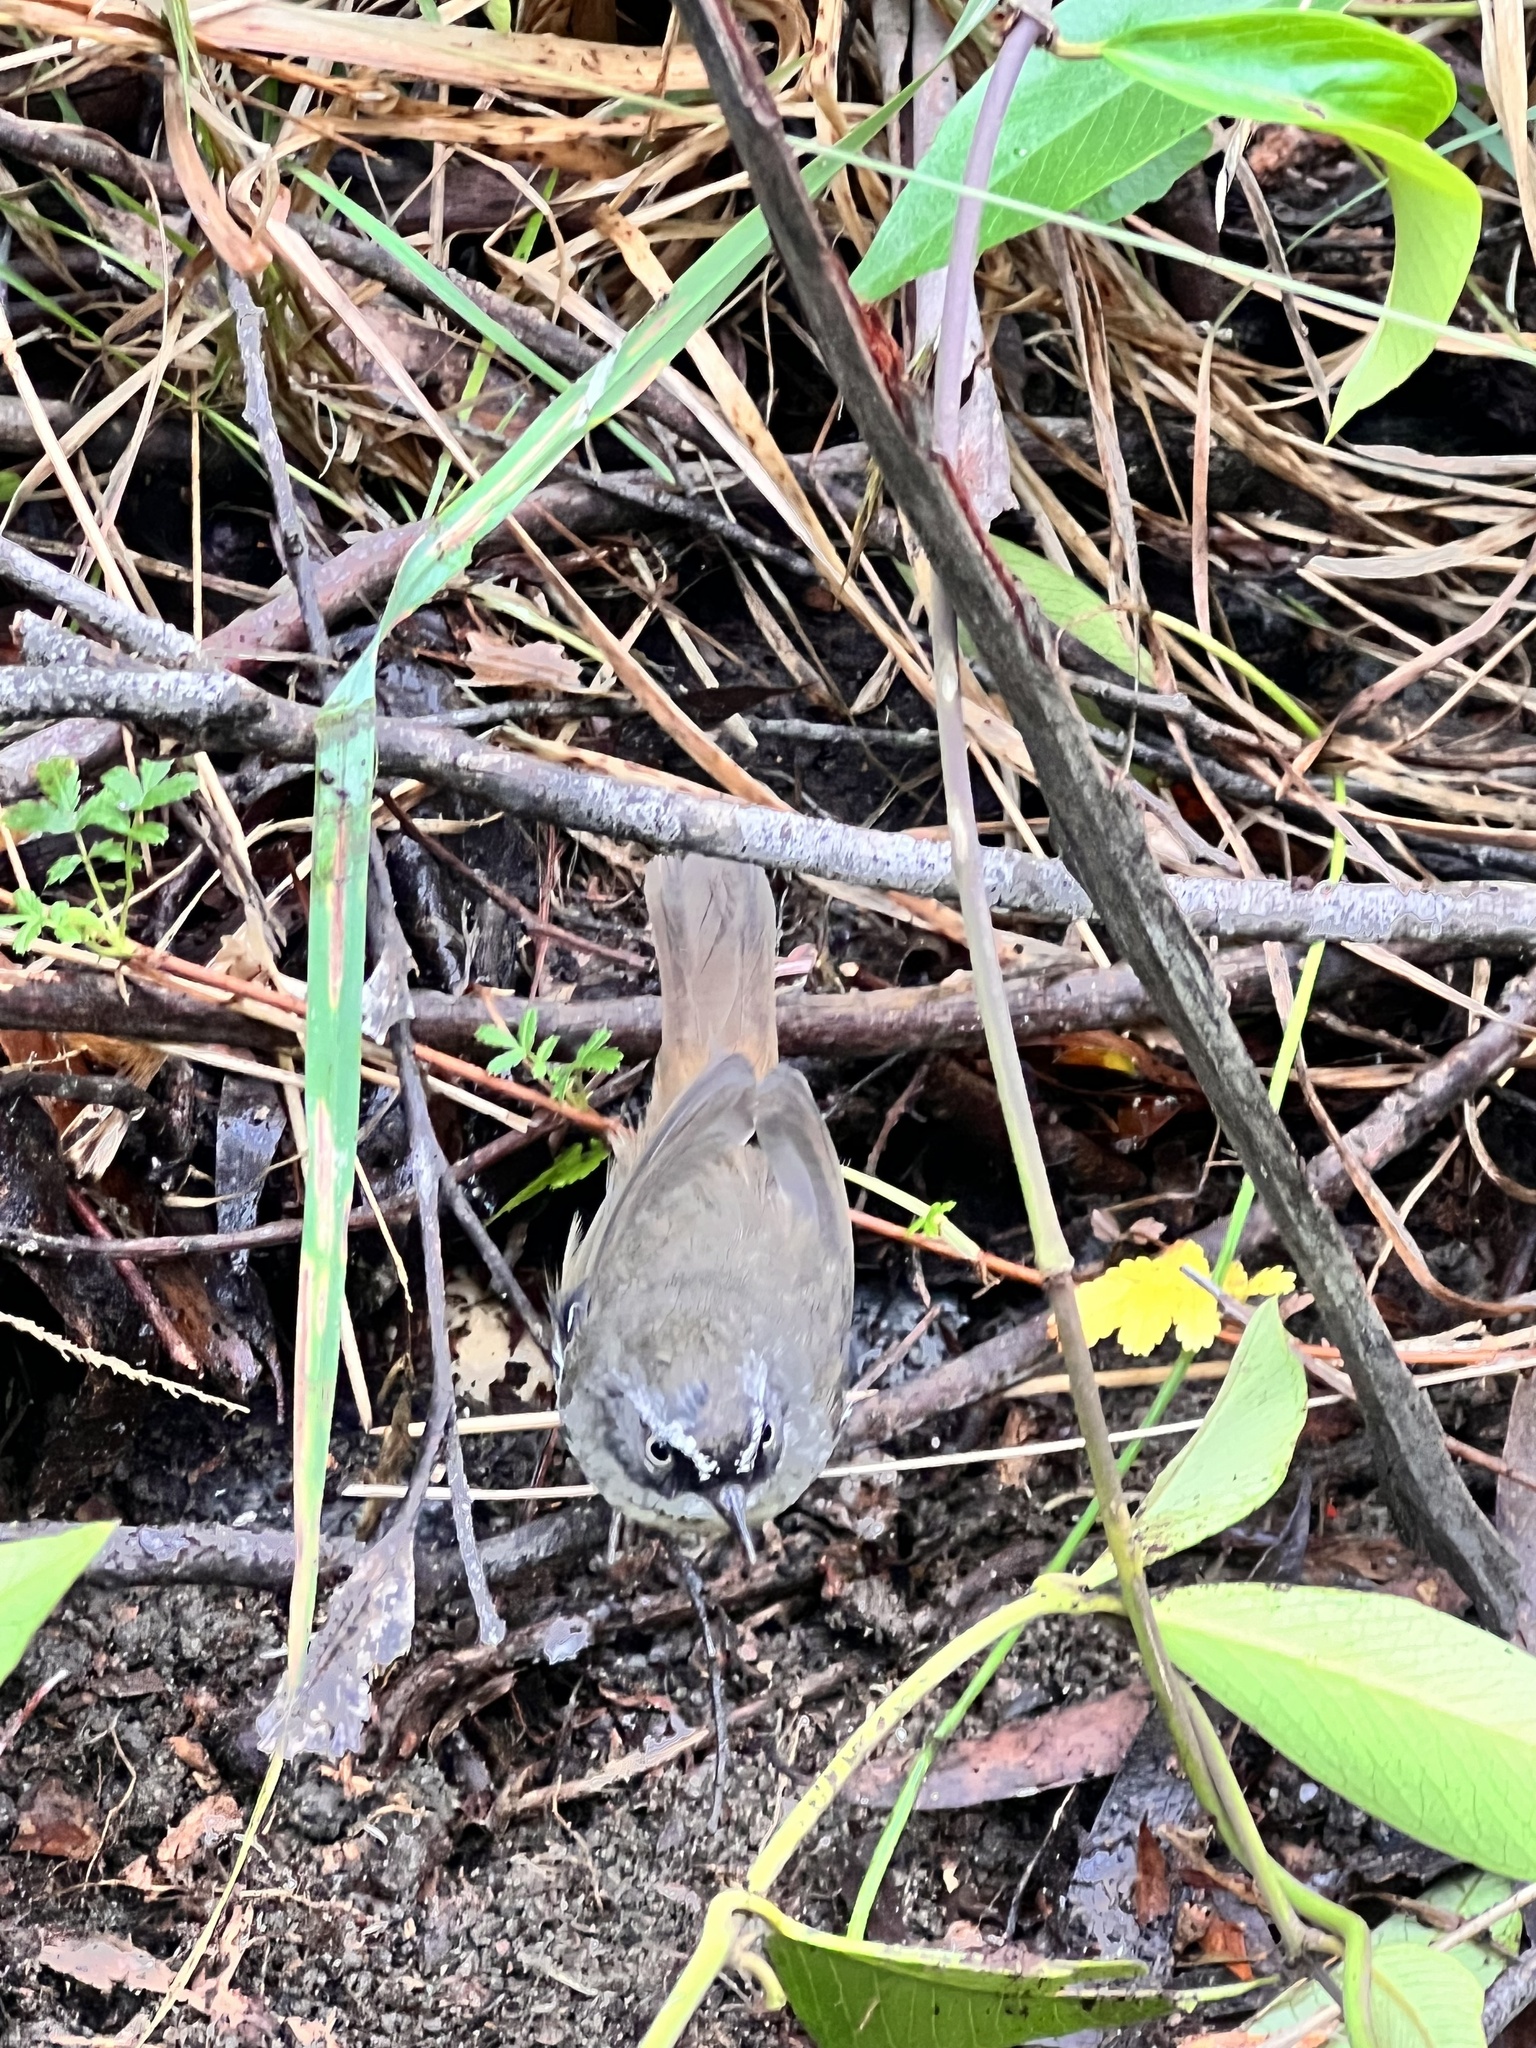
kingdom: Animalia
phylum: Chordata
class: Aves
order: Passeriformes
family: Acanthizidae
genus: Sericornis
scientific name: Sericornis frontalis
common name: White-browed scrubwren
